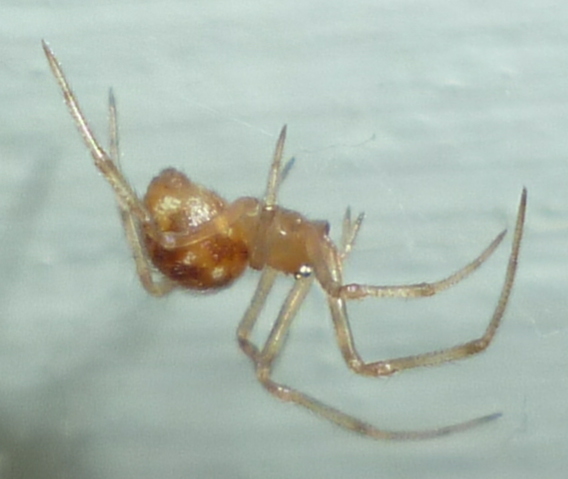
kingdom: Animalia
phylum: Arthropoda
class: Arachnida
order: Araneae
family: Theridiidae
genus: Steatoda
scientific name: Steatoda triangulosa
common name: Triangulate bud spider
